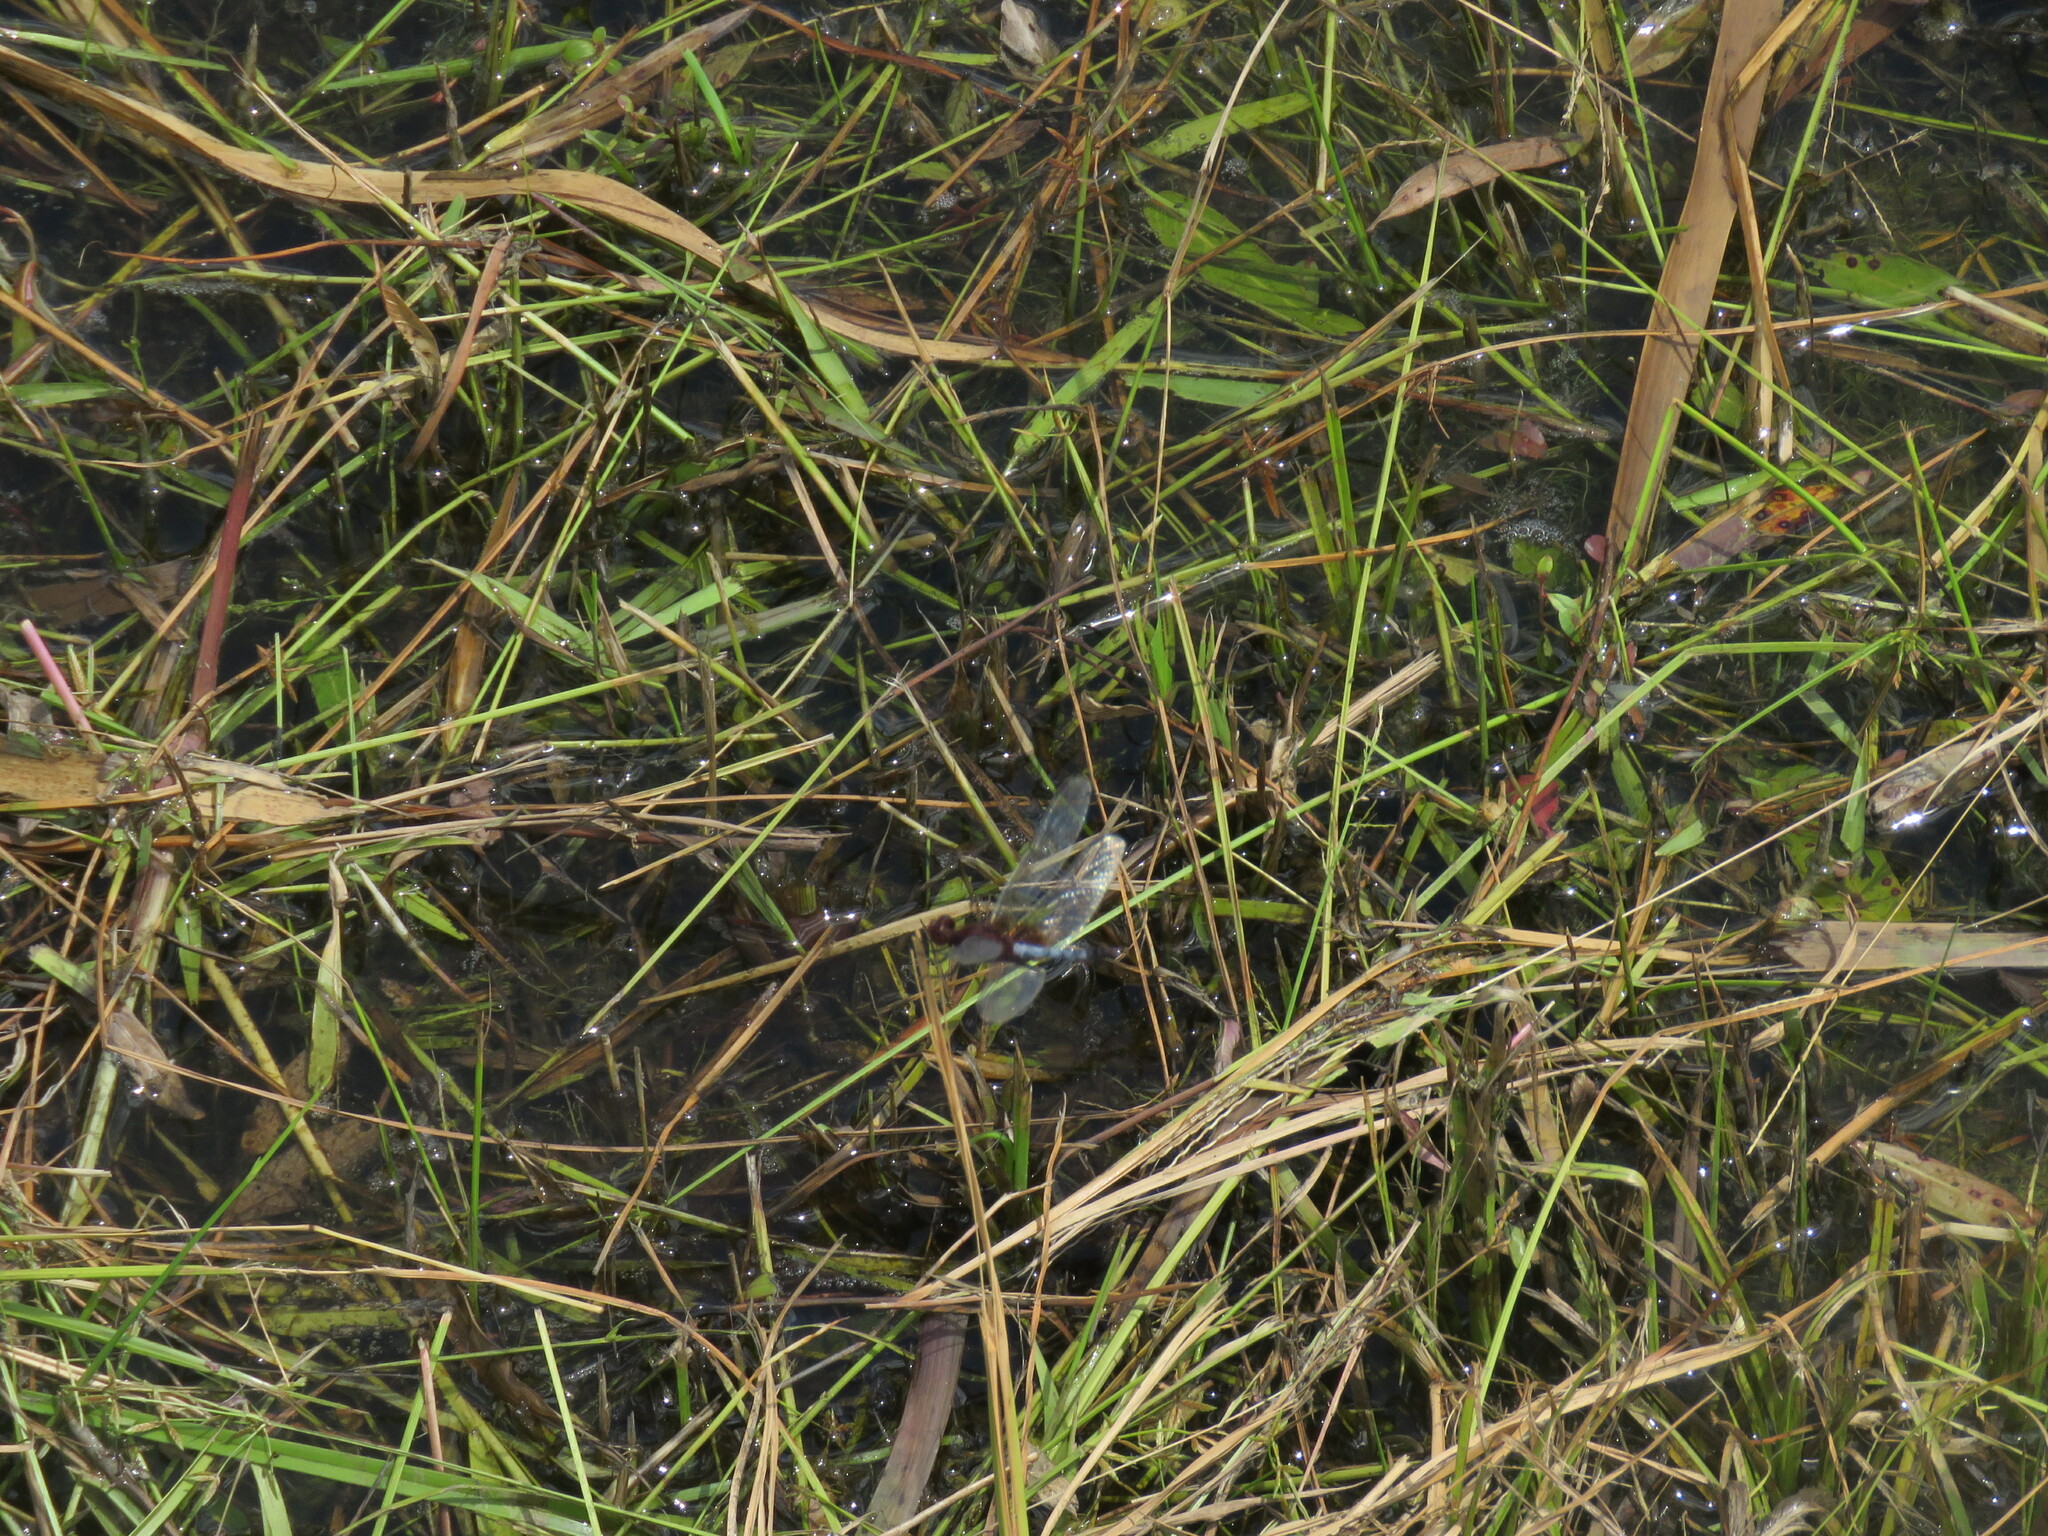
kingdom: Animalia
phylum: Arthropoda
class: Insecta
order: Odonata
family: Libellulidae
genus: Erythrodiplax
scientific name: Erythrodiplax fusca
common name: Red-faced dragonlet
